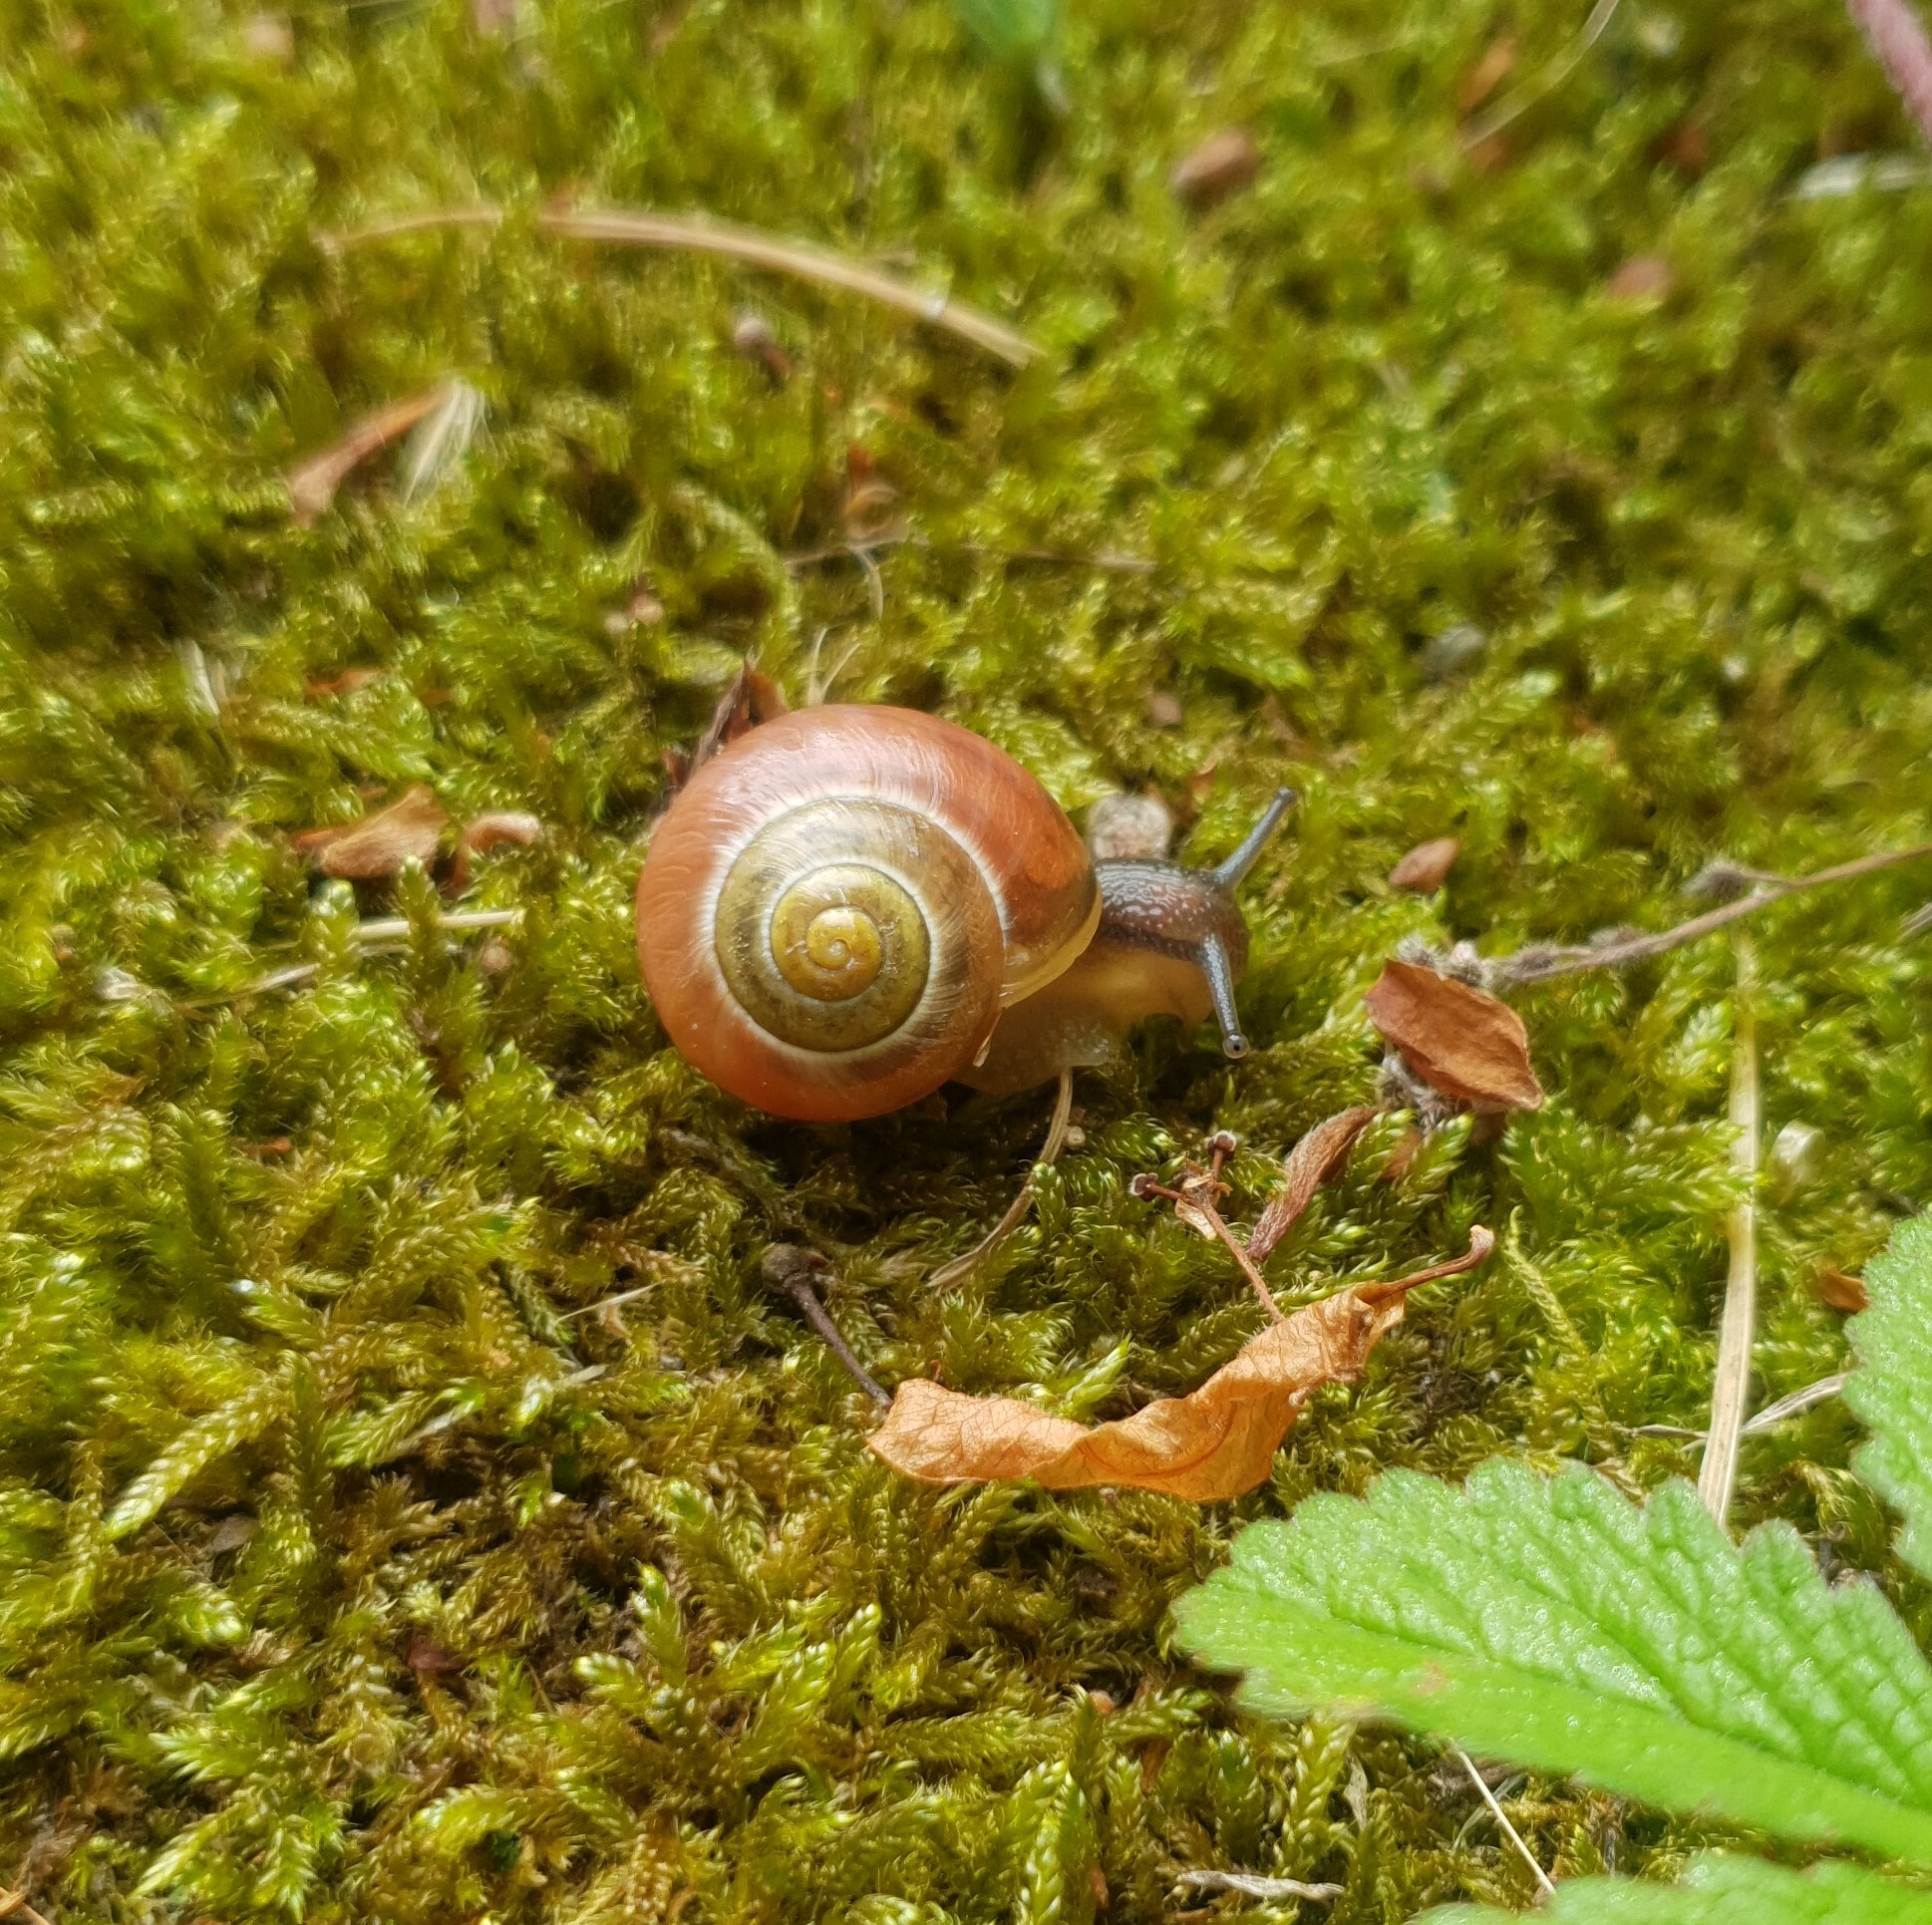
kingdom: Animalia
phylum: Mollusca
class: Gastropoda
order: Stylommatophora
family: Helicidae
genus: Cepaea
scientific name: Cepaea
